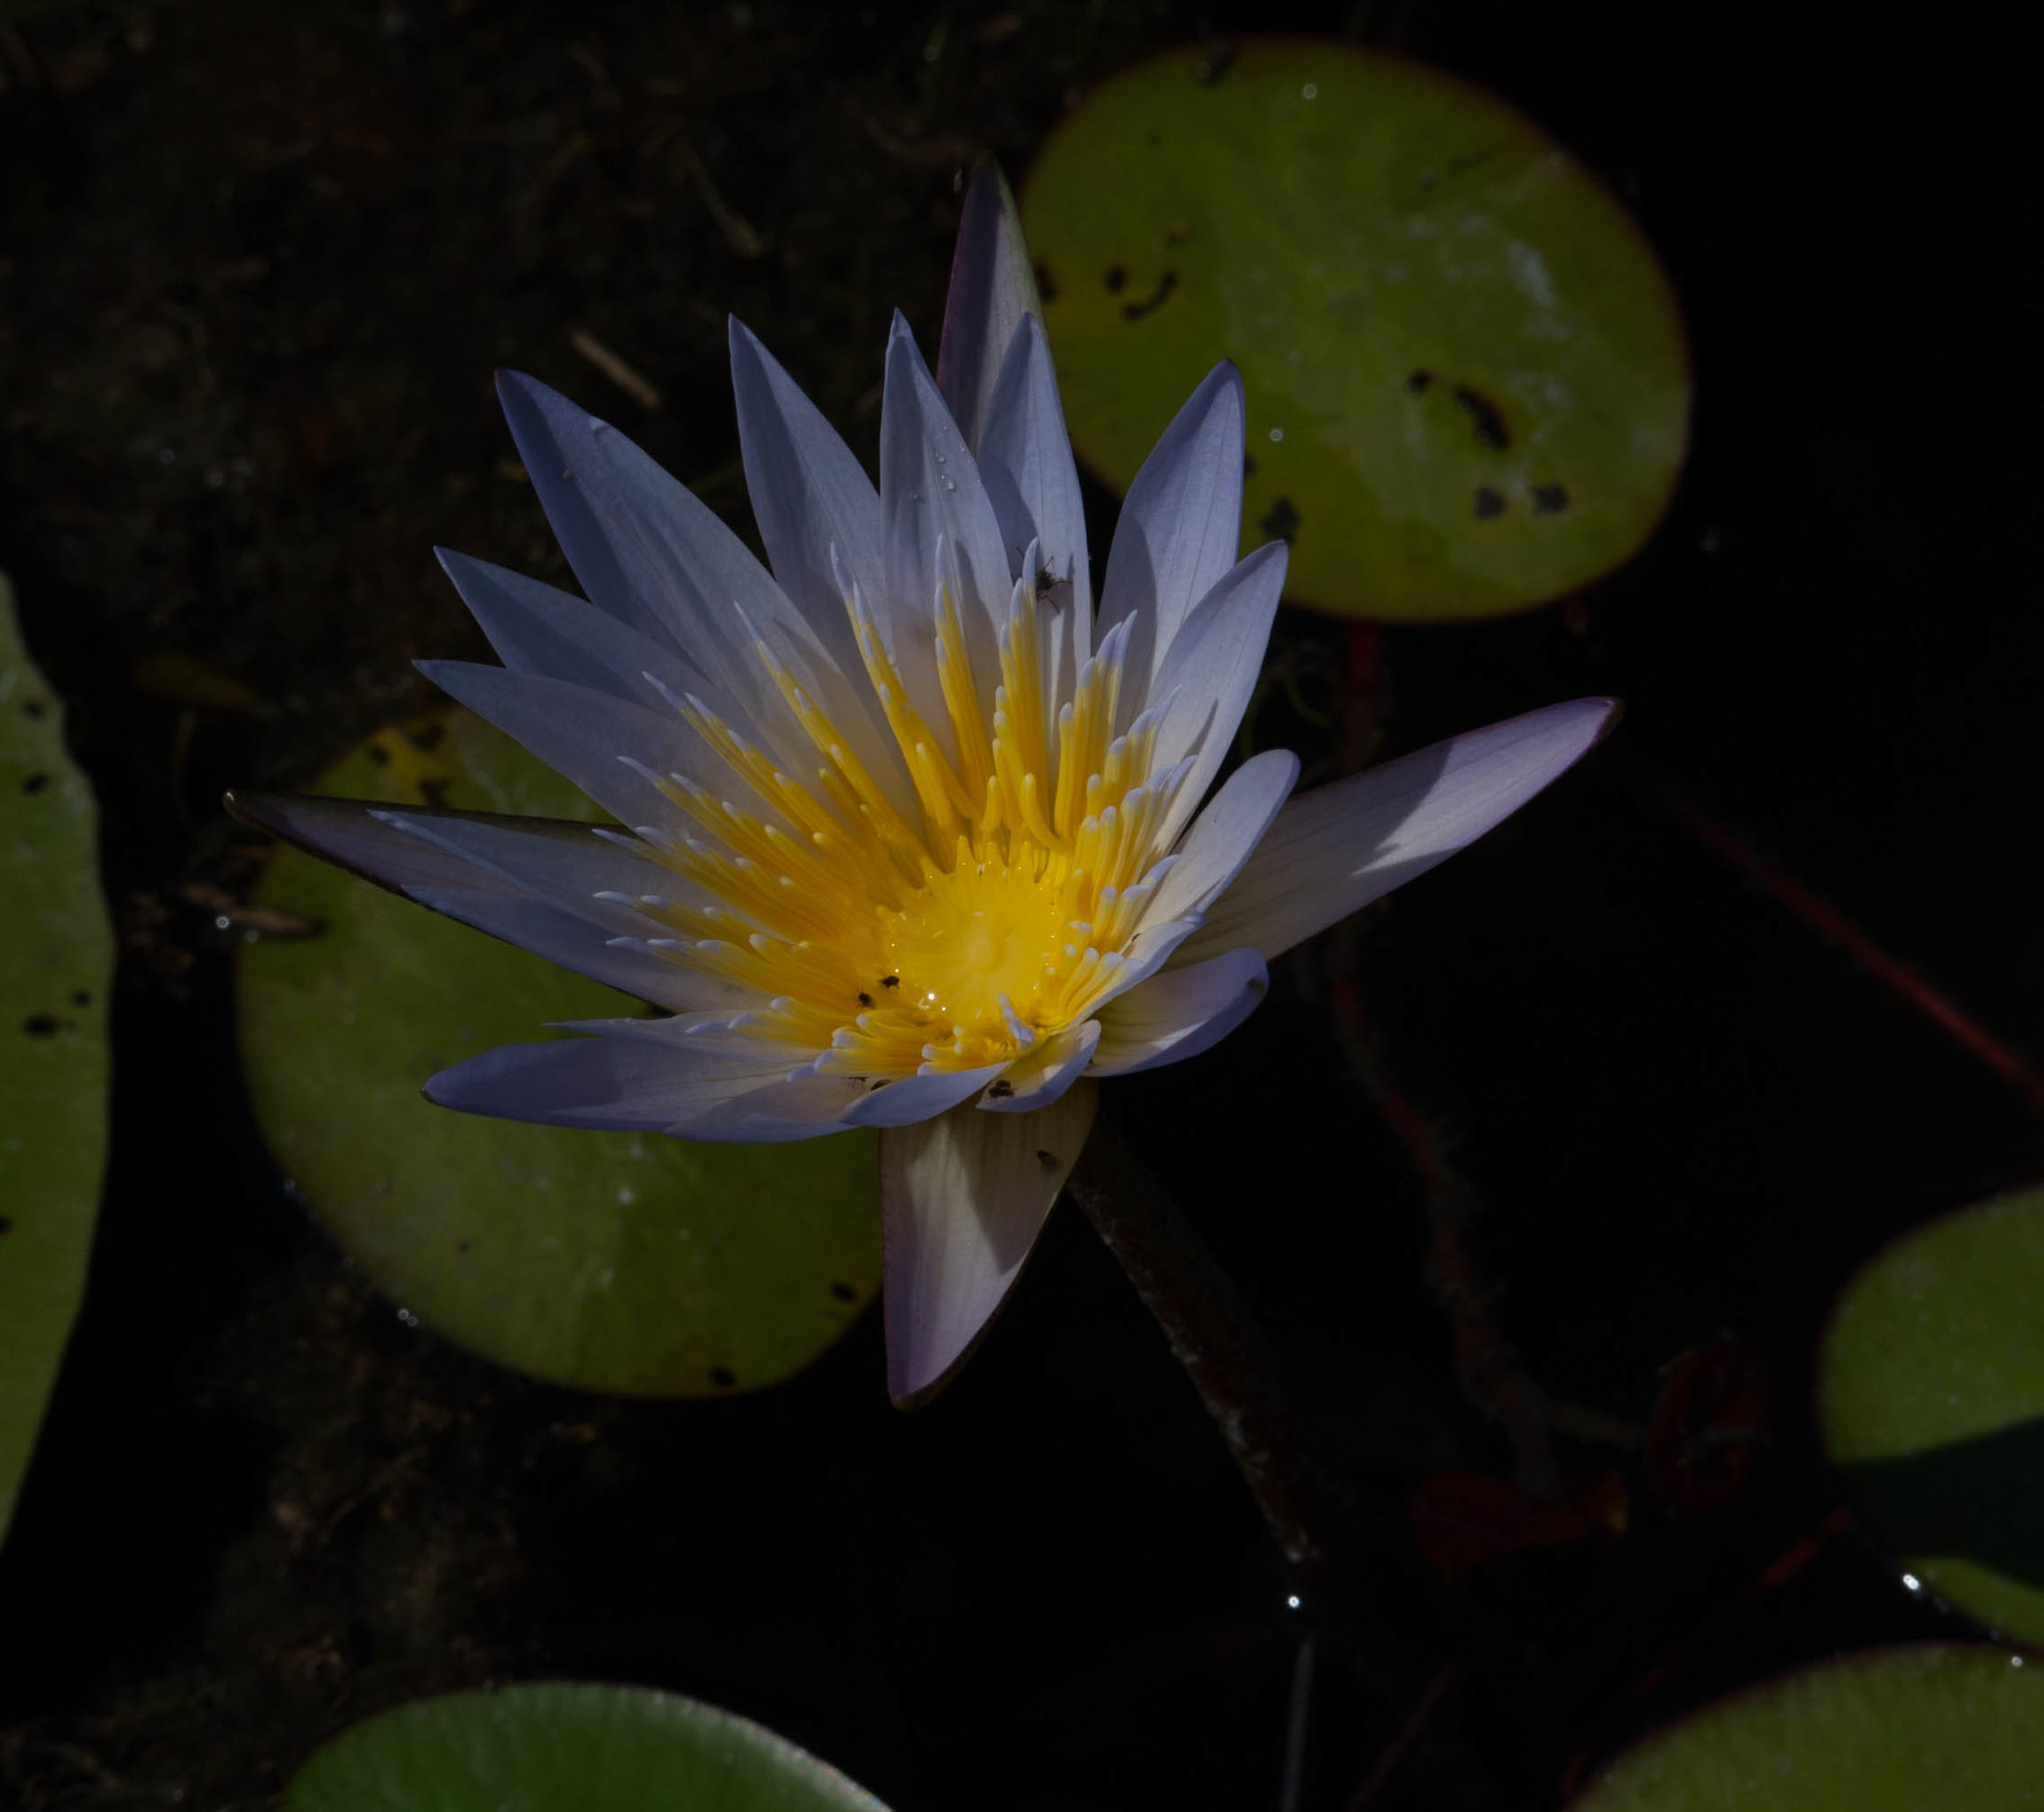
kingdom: Plantae
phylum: Tracheophyta
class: Magnoliopsida
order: Nymphaeales
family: Nymphaeaceae
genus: Nymphaea
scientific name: Nymphaea nouchali
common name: Blue lotus
